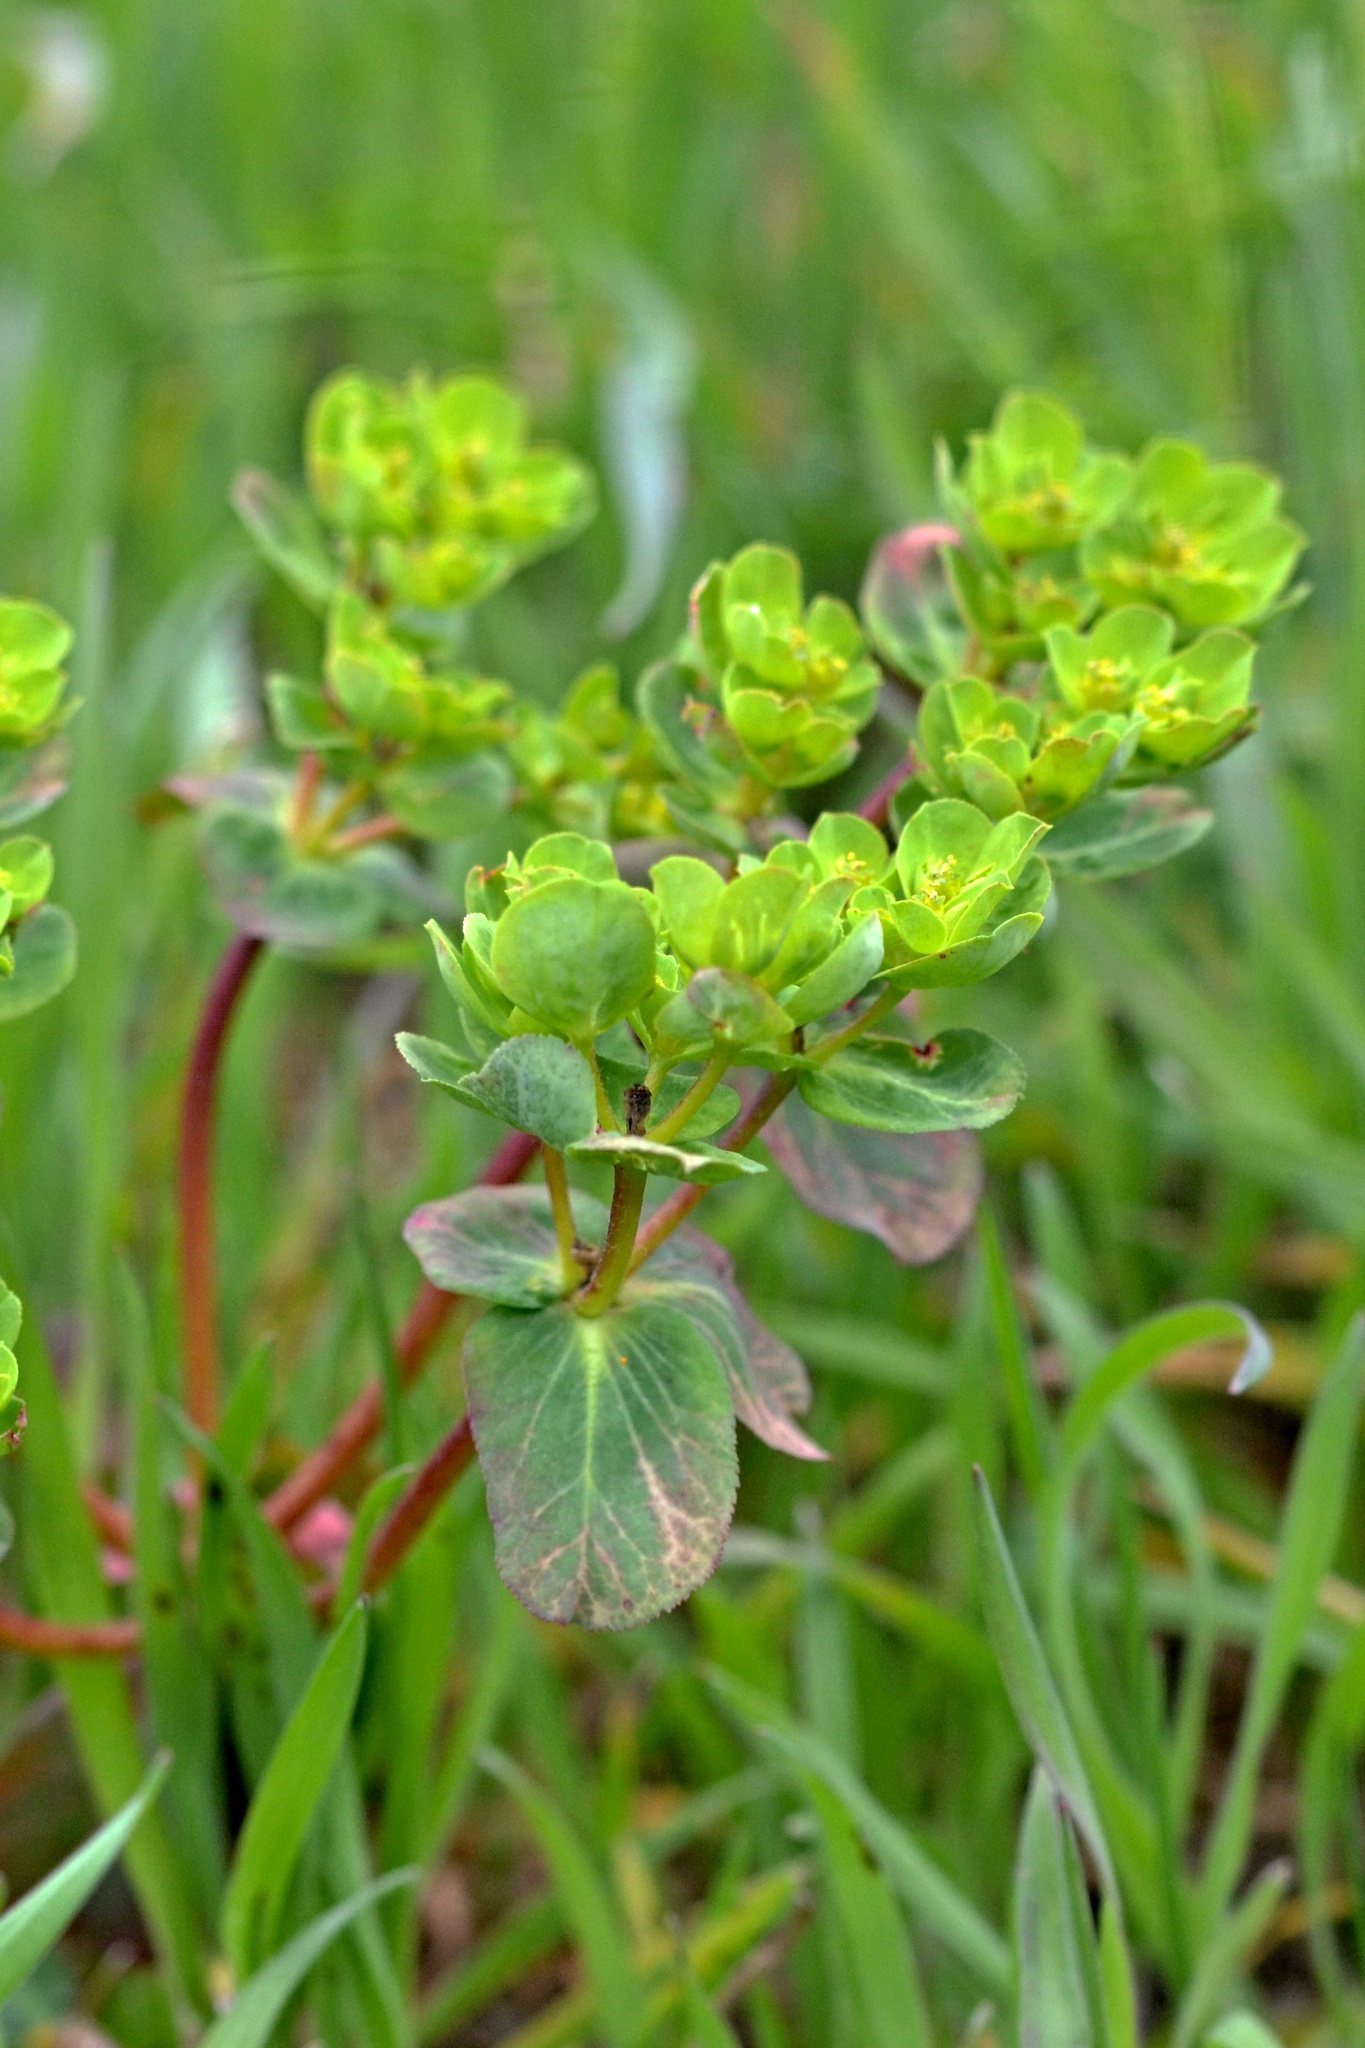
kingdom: Plantae
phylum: Tracheophyta
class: Magnoliopsida
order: Malpighiales
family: Euphorbiaceae
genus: Euphorbia
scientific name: Euphorbia helioscopia
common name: Sun spurge
